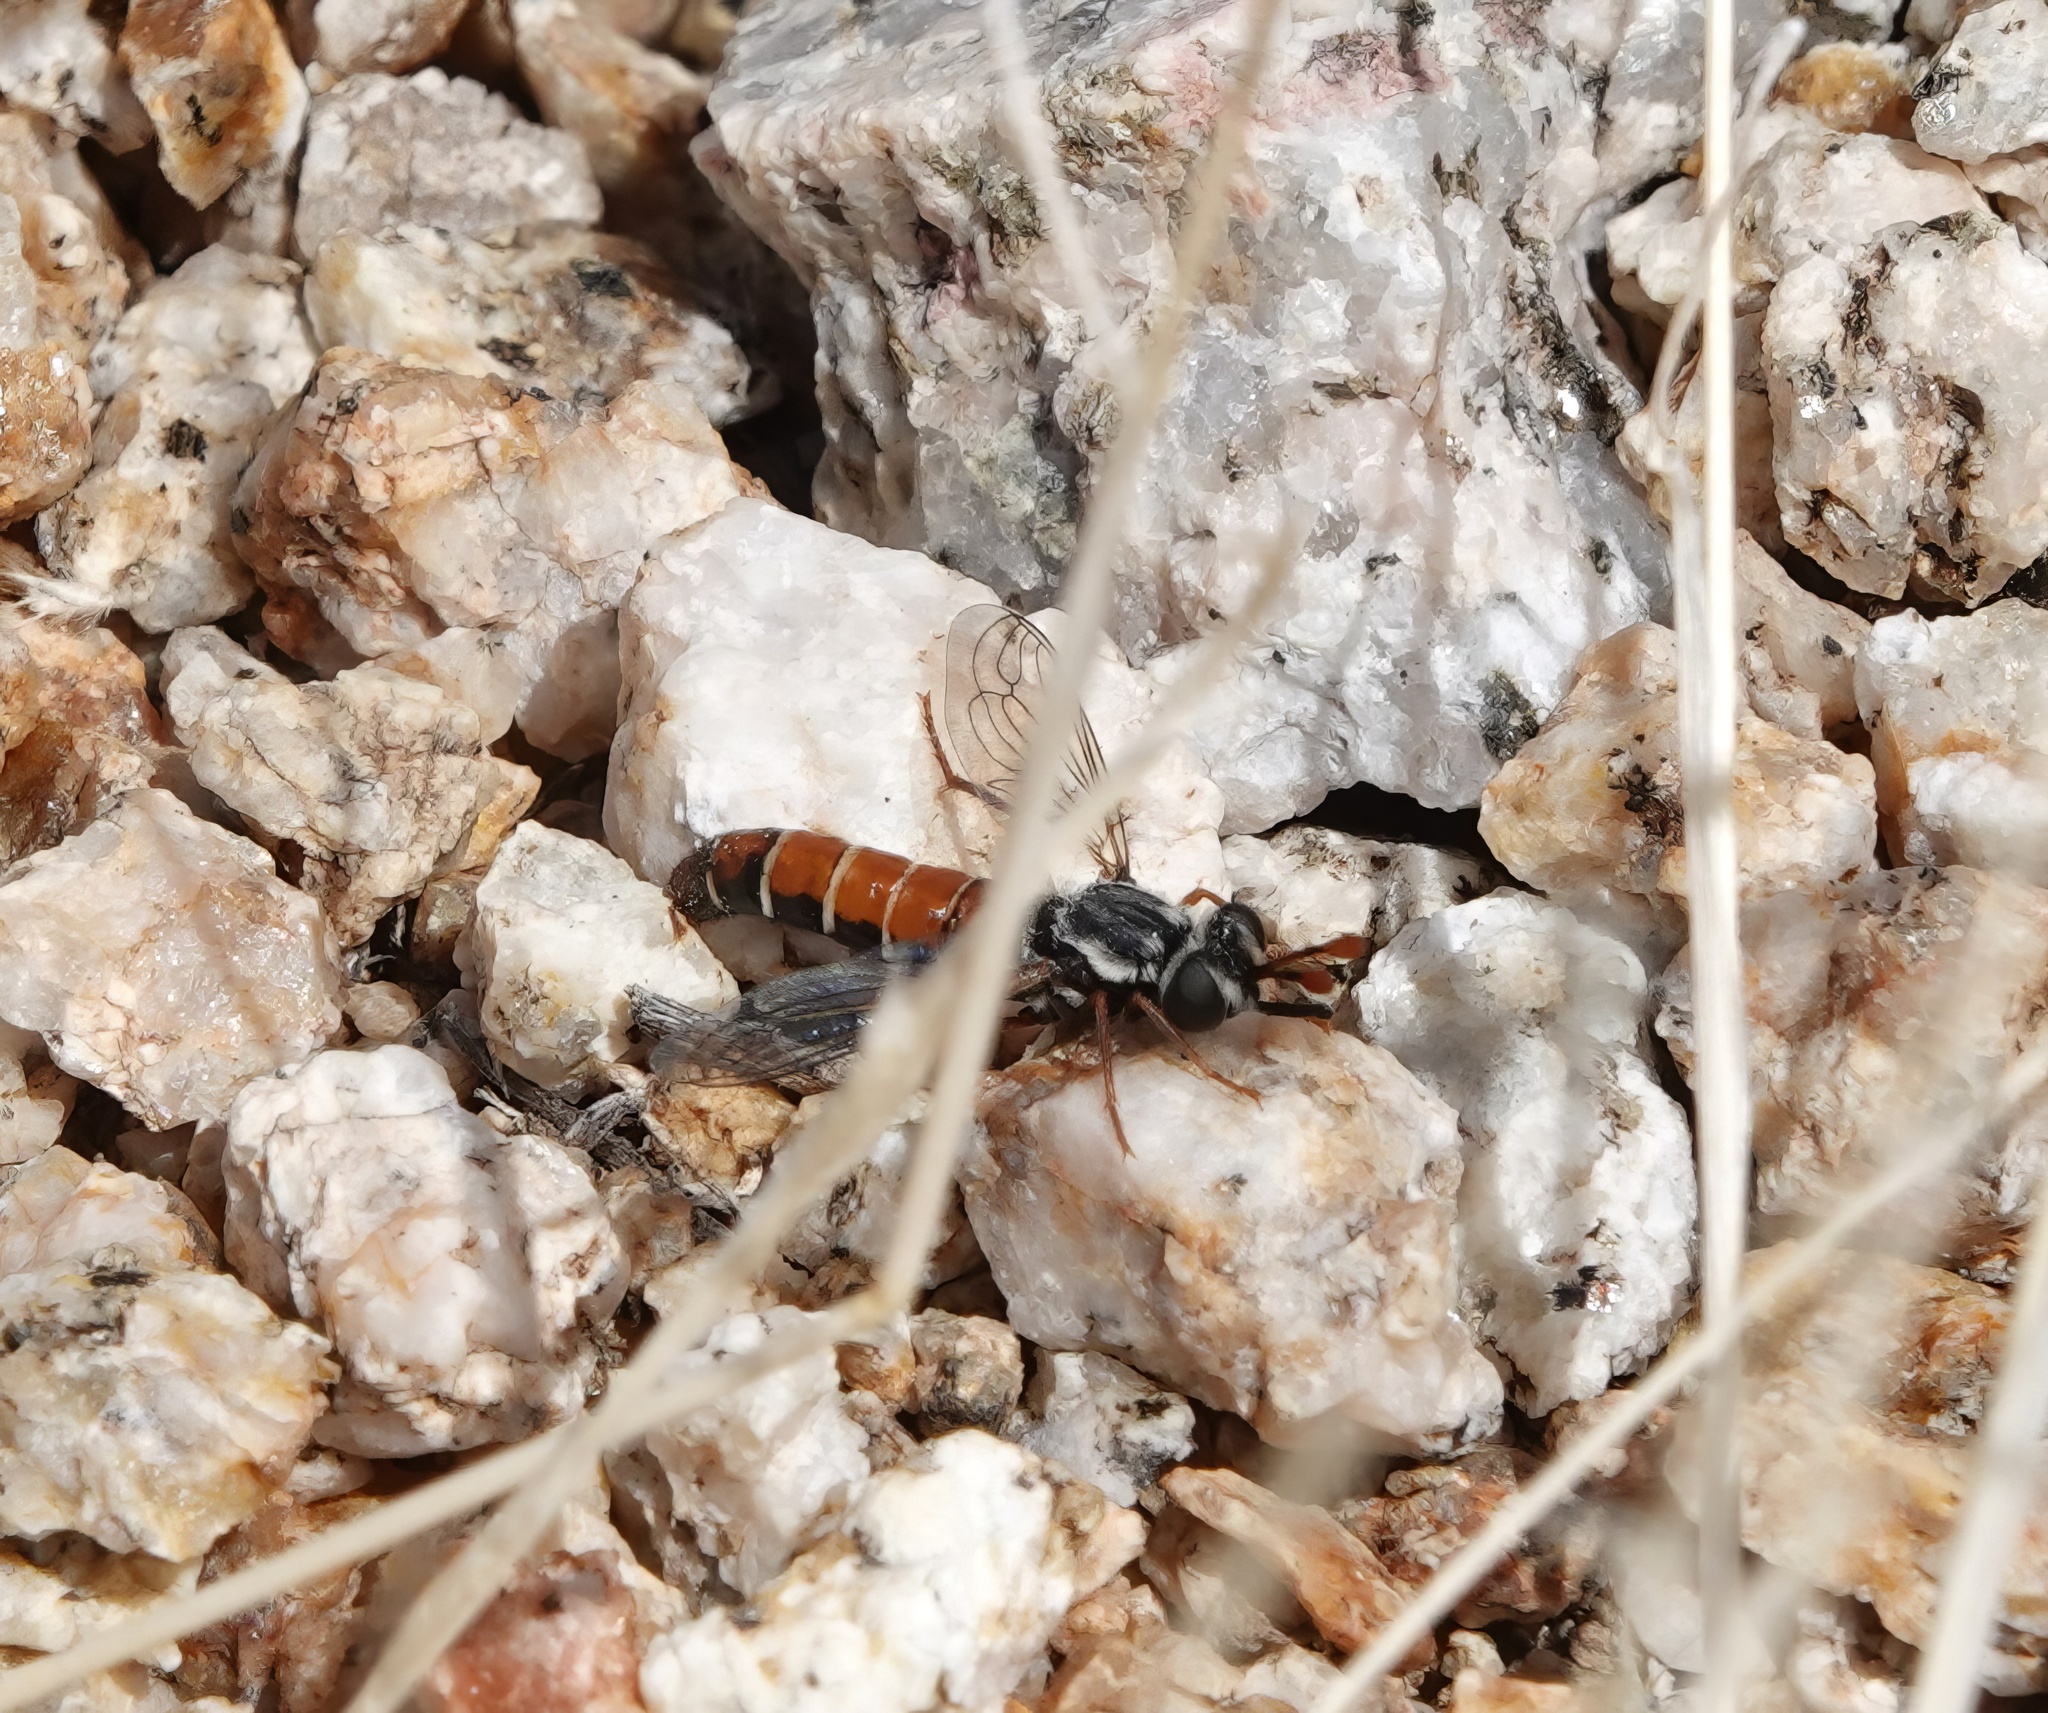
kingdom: Animalia
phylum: Arthropoda
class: Insecta
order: Diptera
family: Mydidae
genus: Pseudonomoneura
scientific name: Pseudonomoneura micheneri
